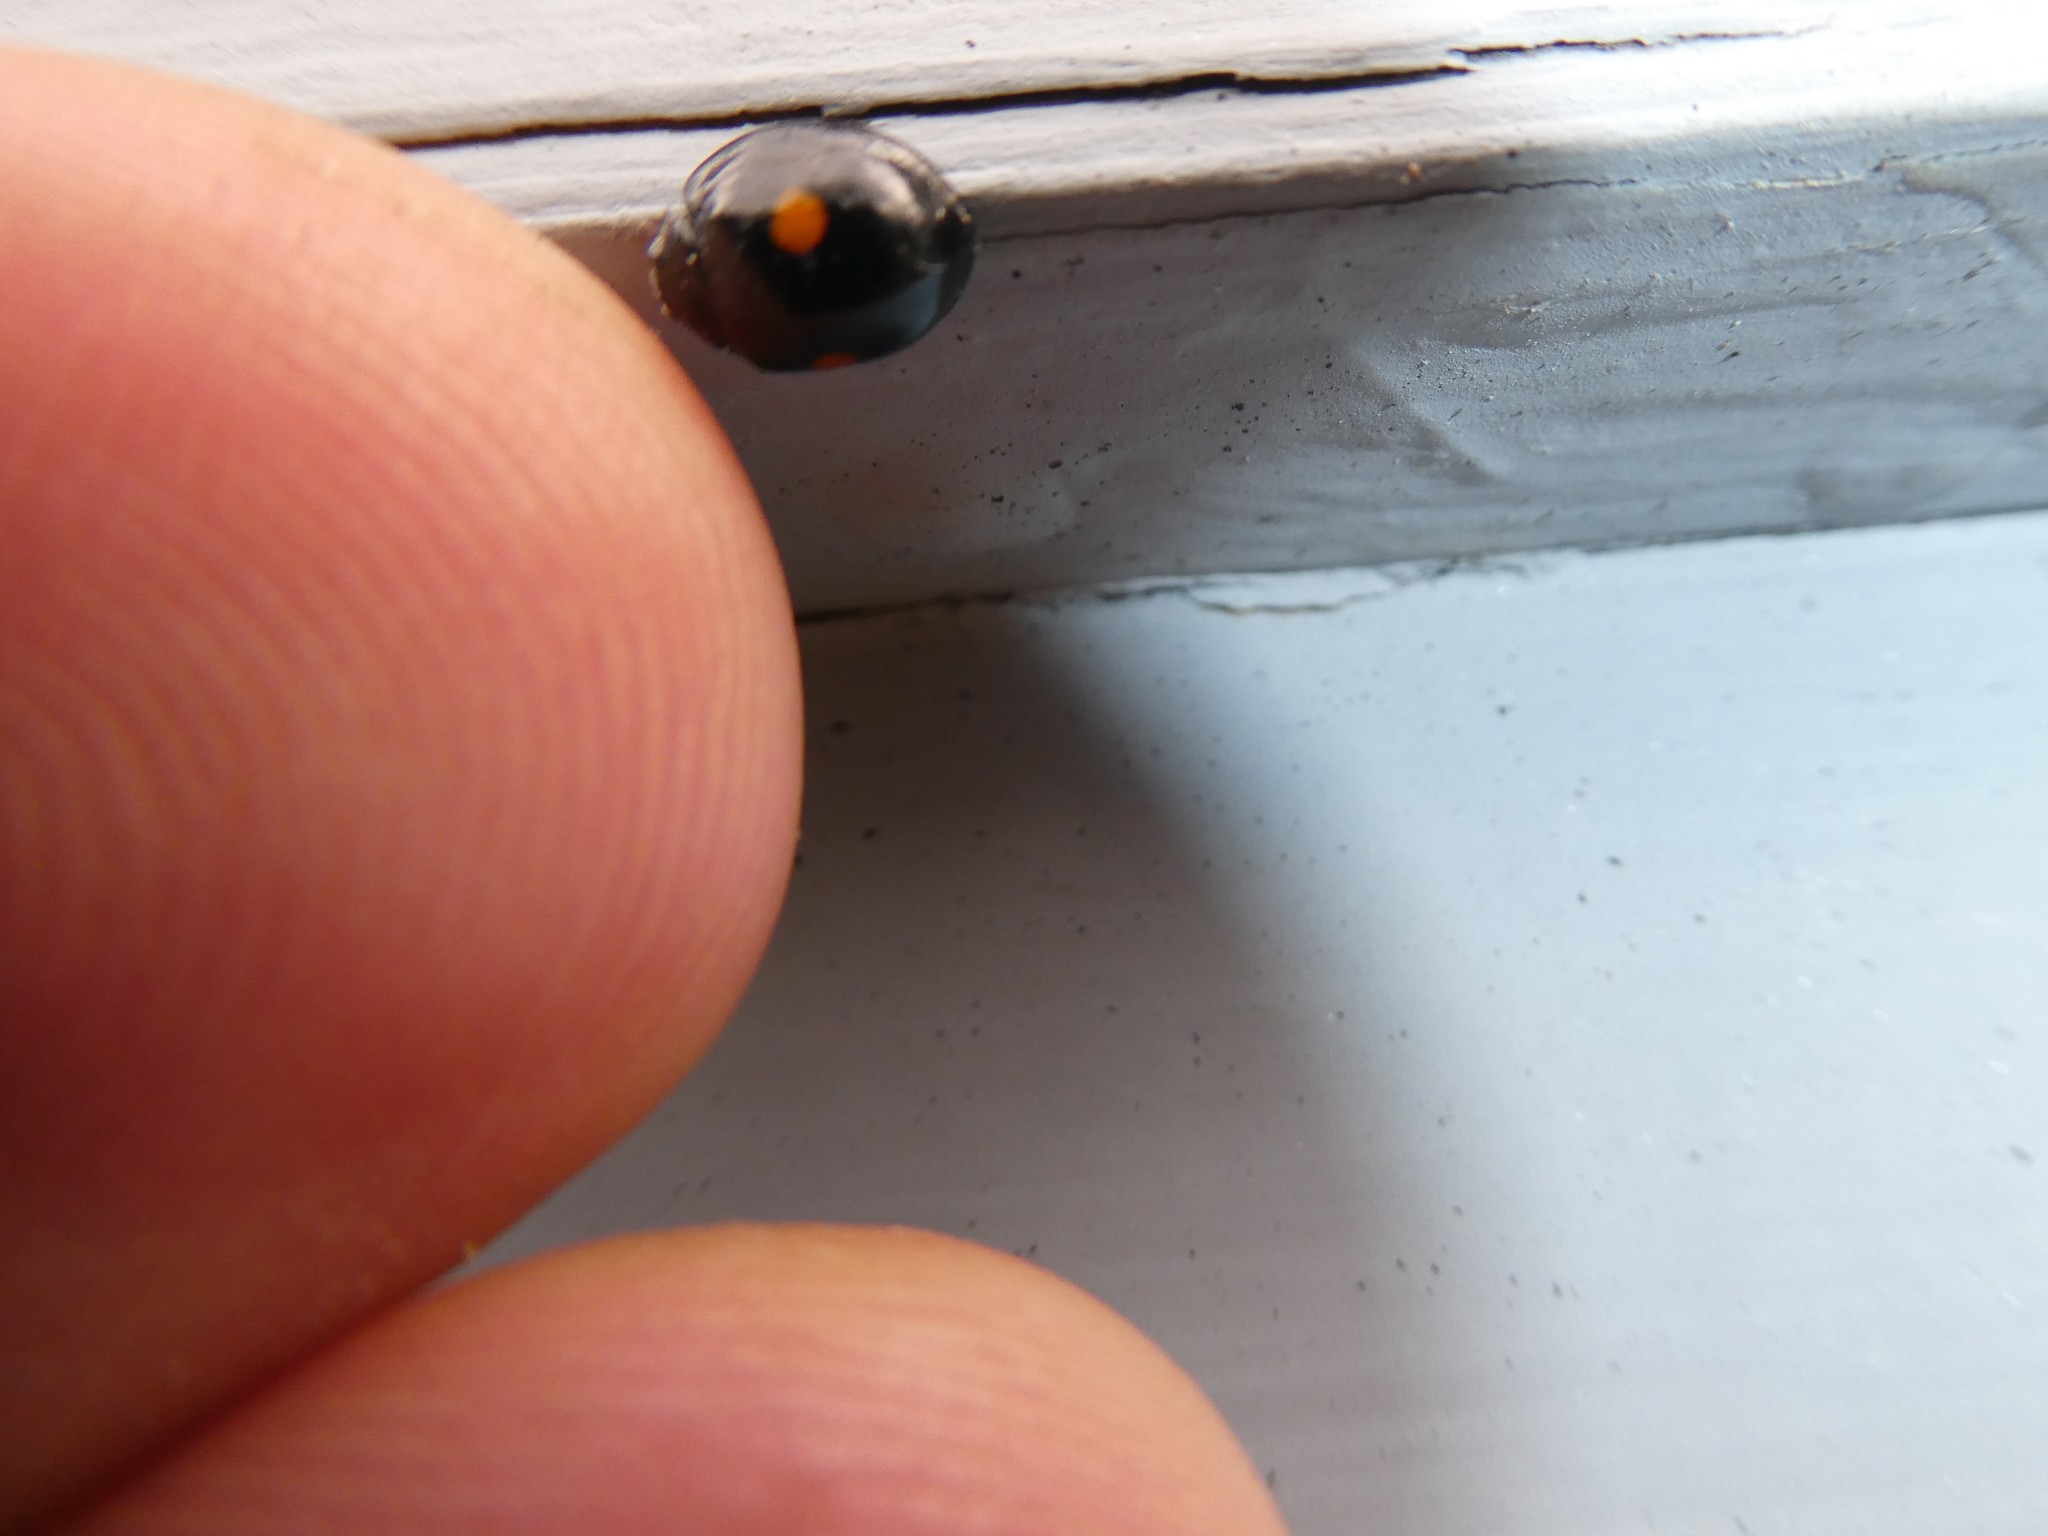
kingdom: Animalia
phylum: Arthropoda
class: Insecta
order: Coleoptera
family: Coccinellidae
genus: Chilocorus
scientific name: Chilocorus stigma
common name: Twicestabbed lady beetle
